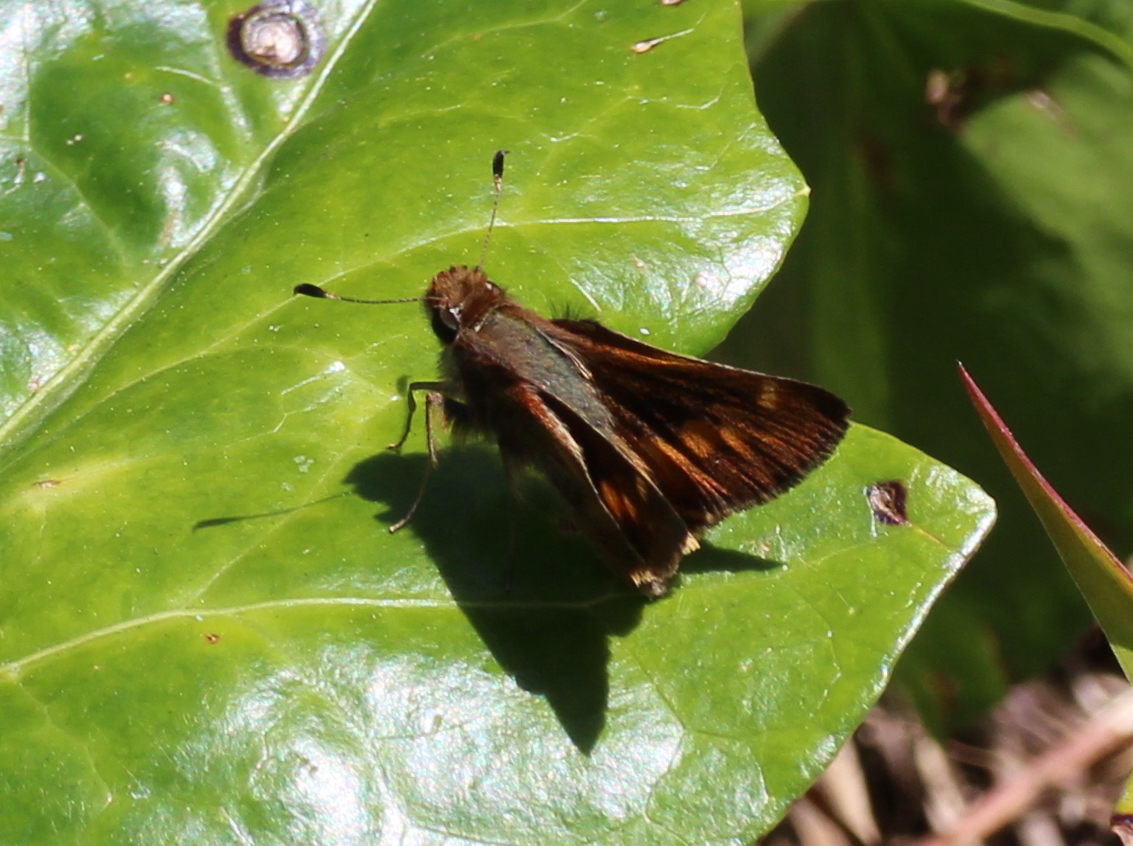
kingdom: Animalia
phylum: Arthropoda
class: Insecta
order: Lepidoptera
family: Hesperiidae
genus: Lon
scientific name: Lon melane
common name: Umber skipper
